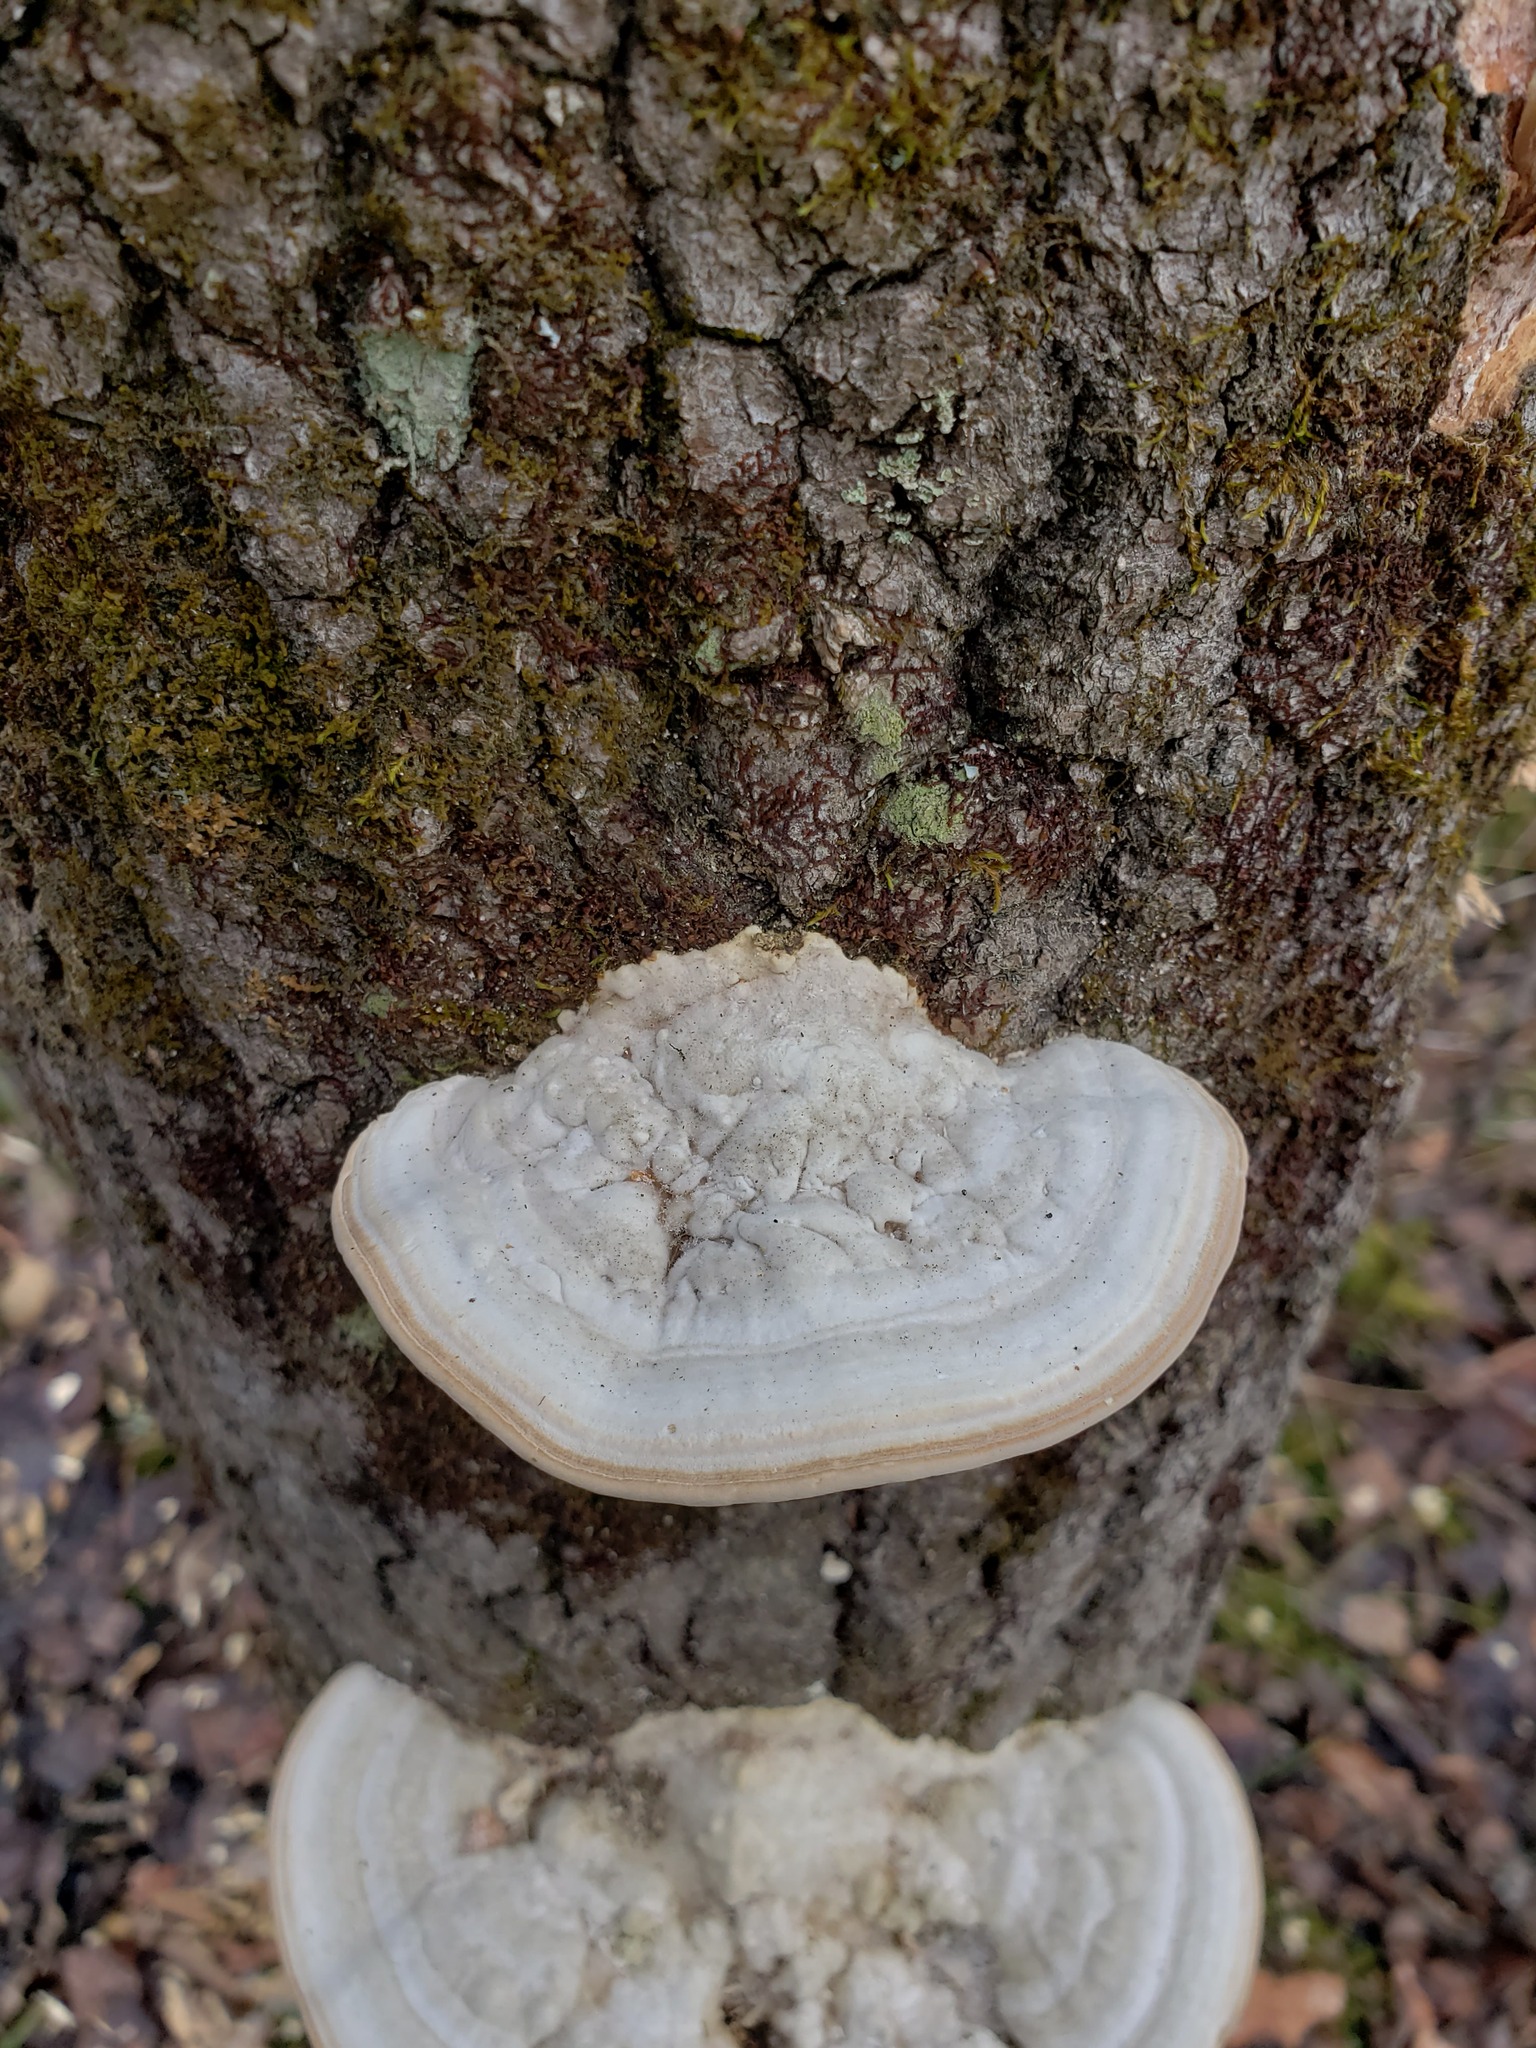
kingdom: Fungi
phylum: Basidiomycota
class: Agaricomycetes
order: Polyporales
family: Polyporaceae
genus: Trametes
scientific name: Trametes gibbosa
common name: Lumpy bracket
